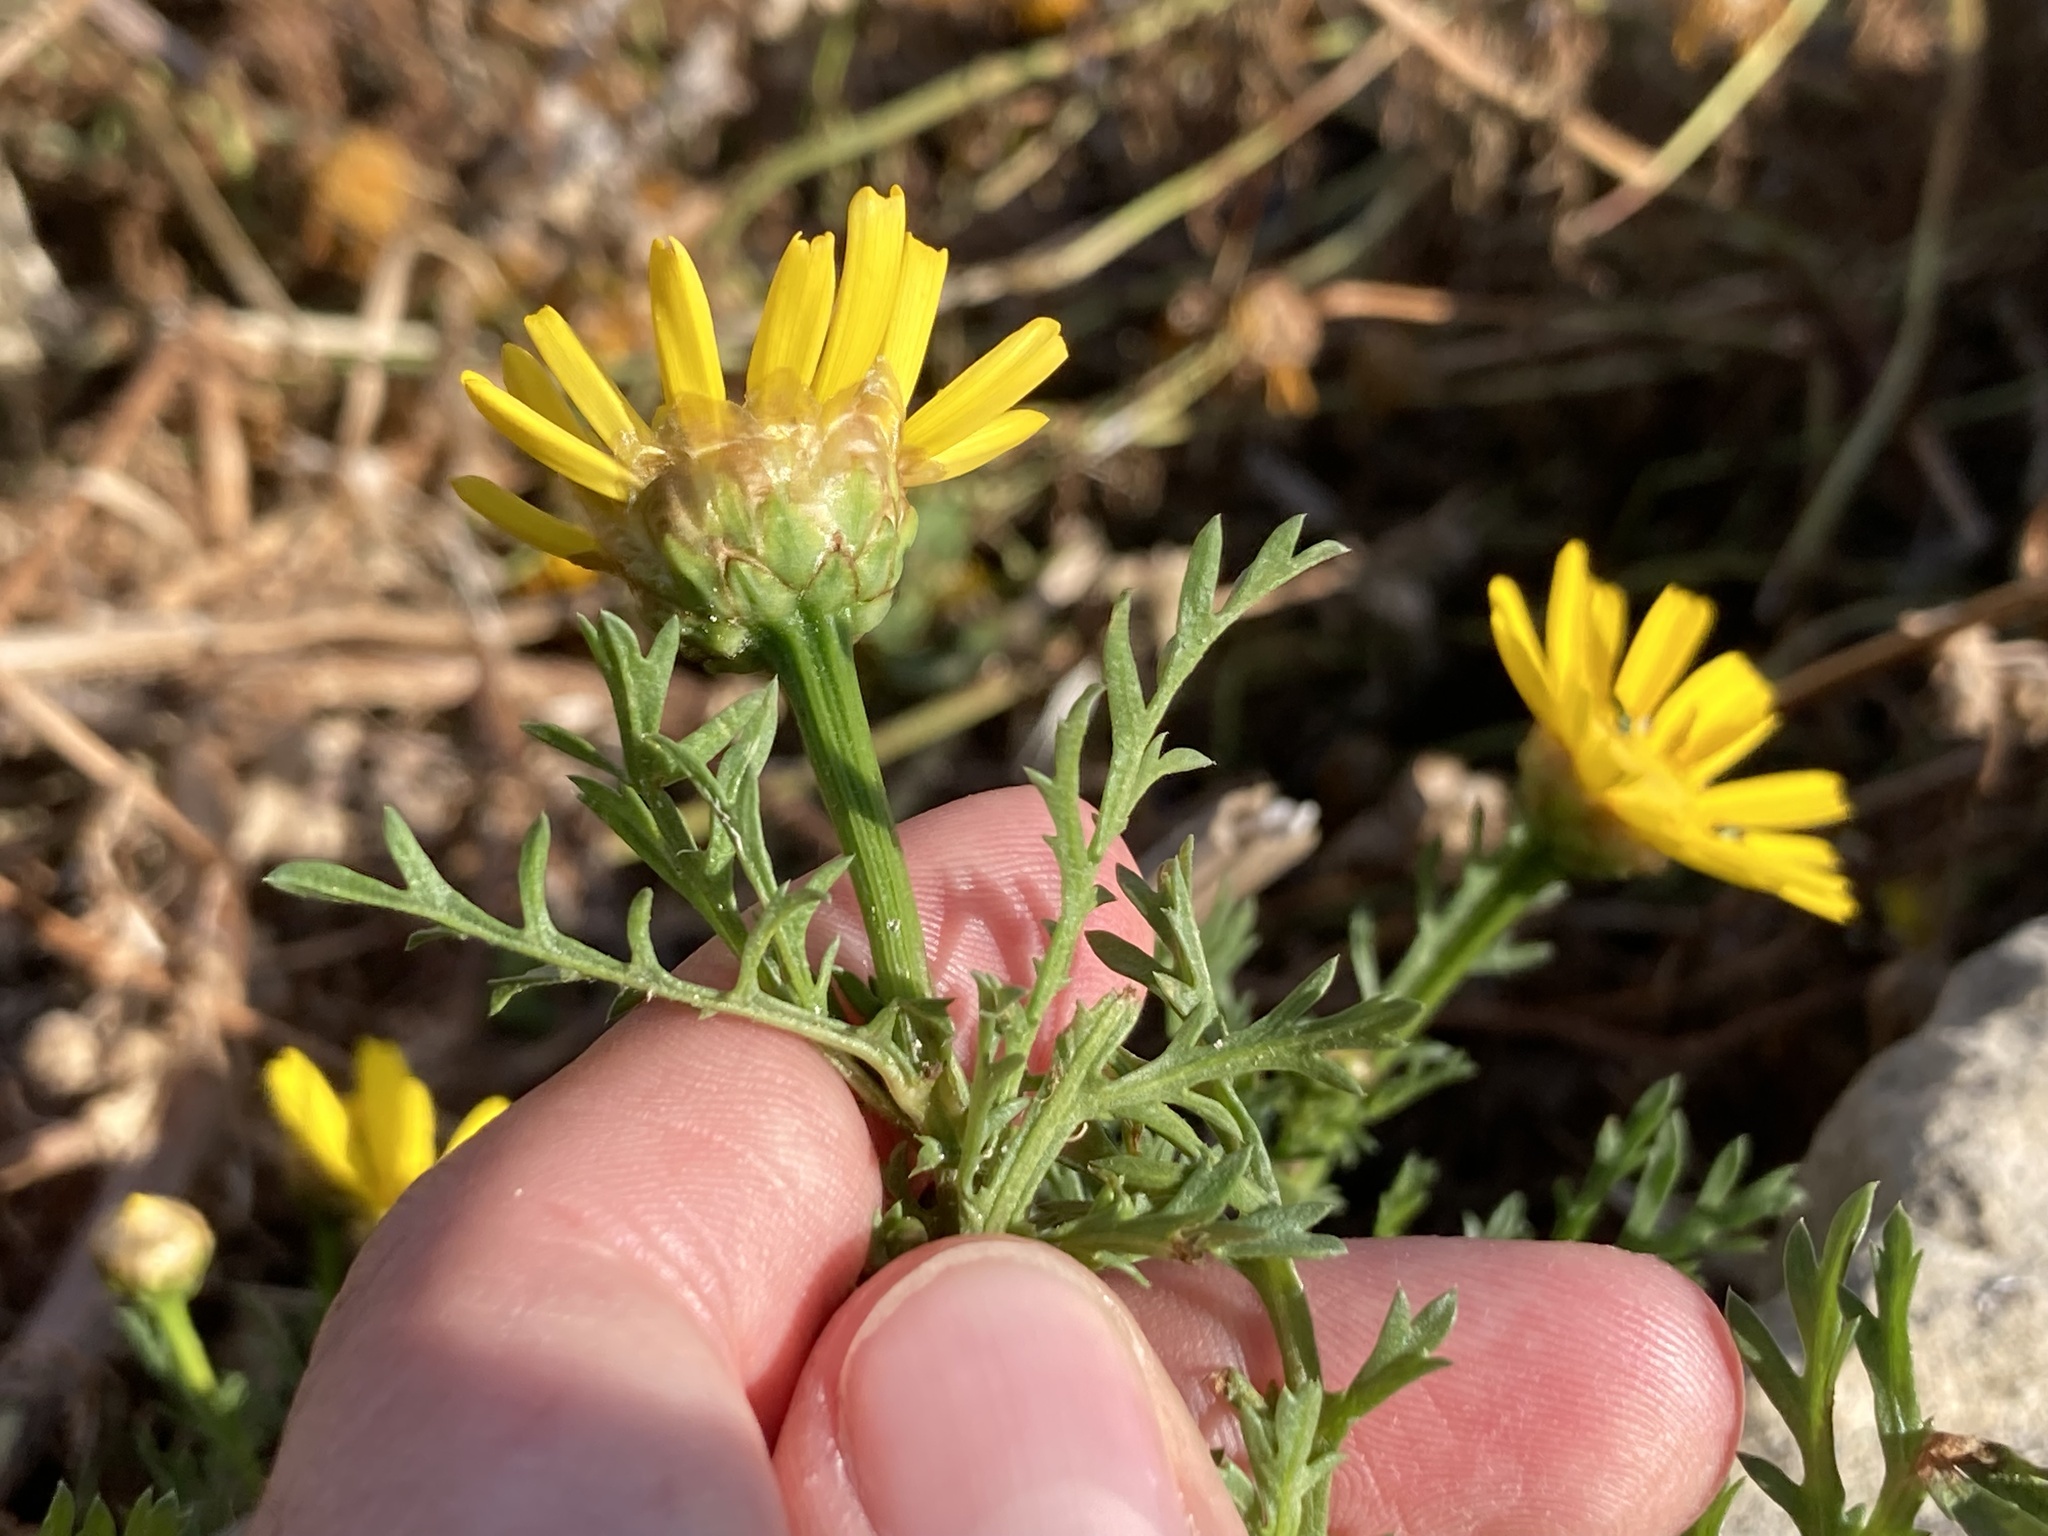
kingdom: Plantae
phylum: Tracheophyta
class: Magnoliopsida
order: Asterales
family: Asteraceae
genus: Glebionis
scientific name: Glebionis coronaria
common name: Crowndaisy
